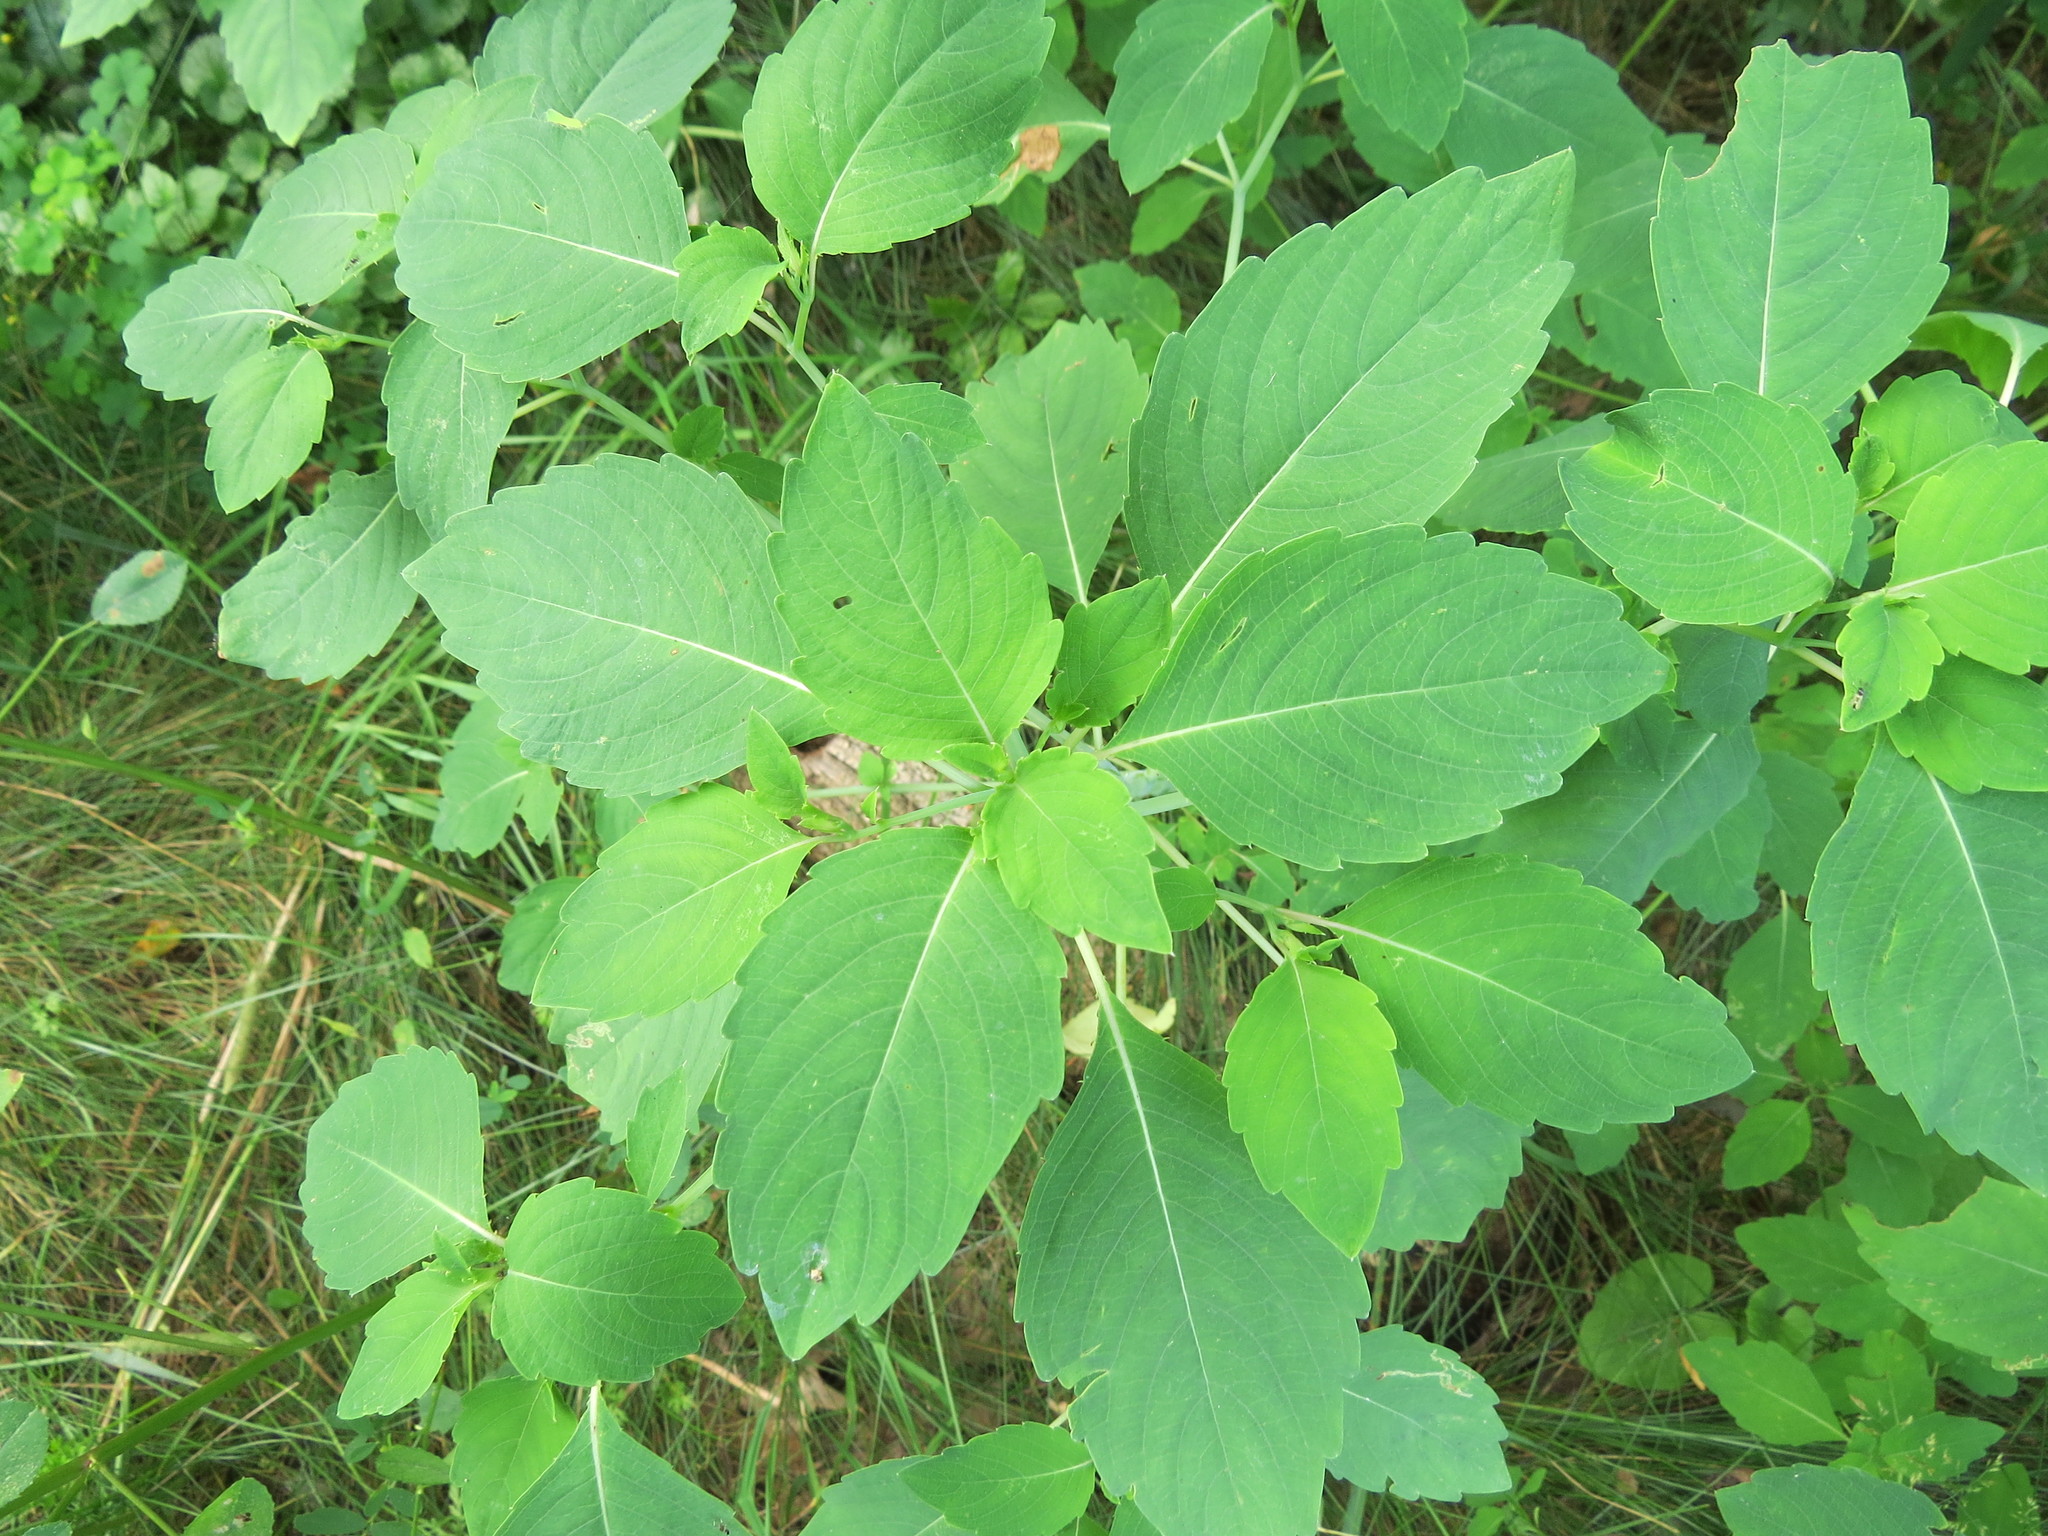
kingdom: Plantae
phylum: Tracheophyta
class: Magnoliopsida
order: Ericales
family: Balsaminaceae
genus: Impatiens
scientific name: Impatiens capensis
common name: Orange balsam
